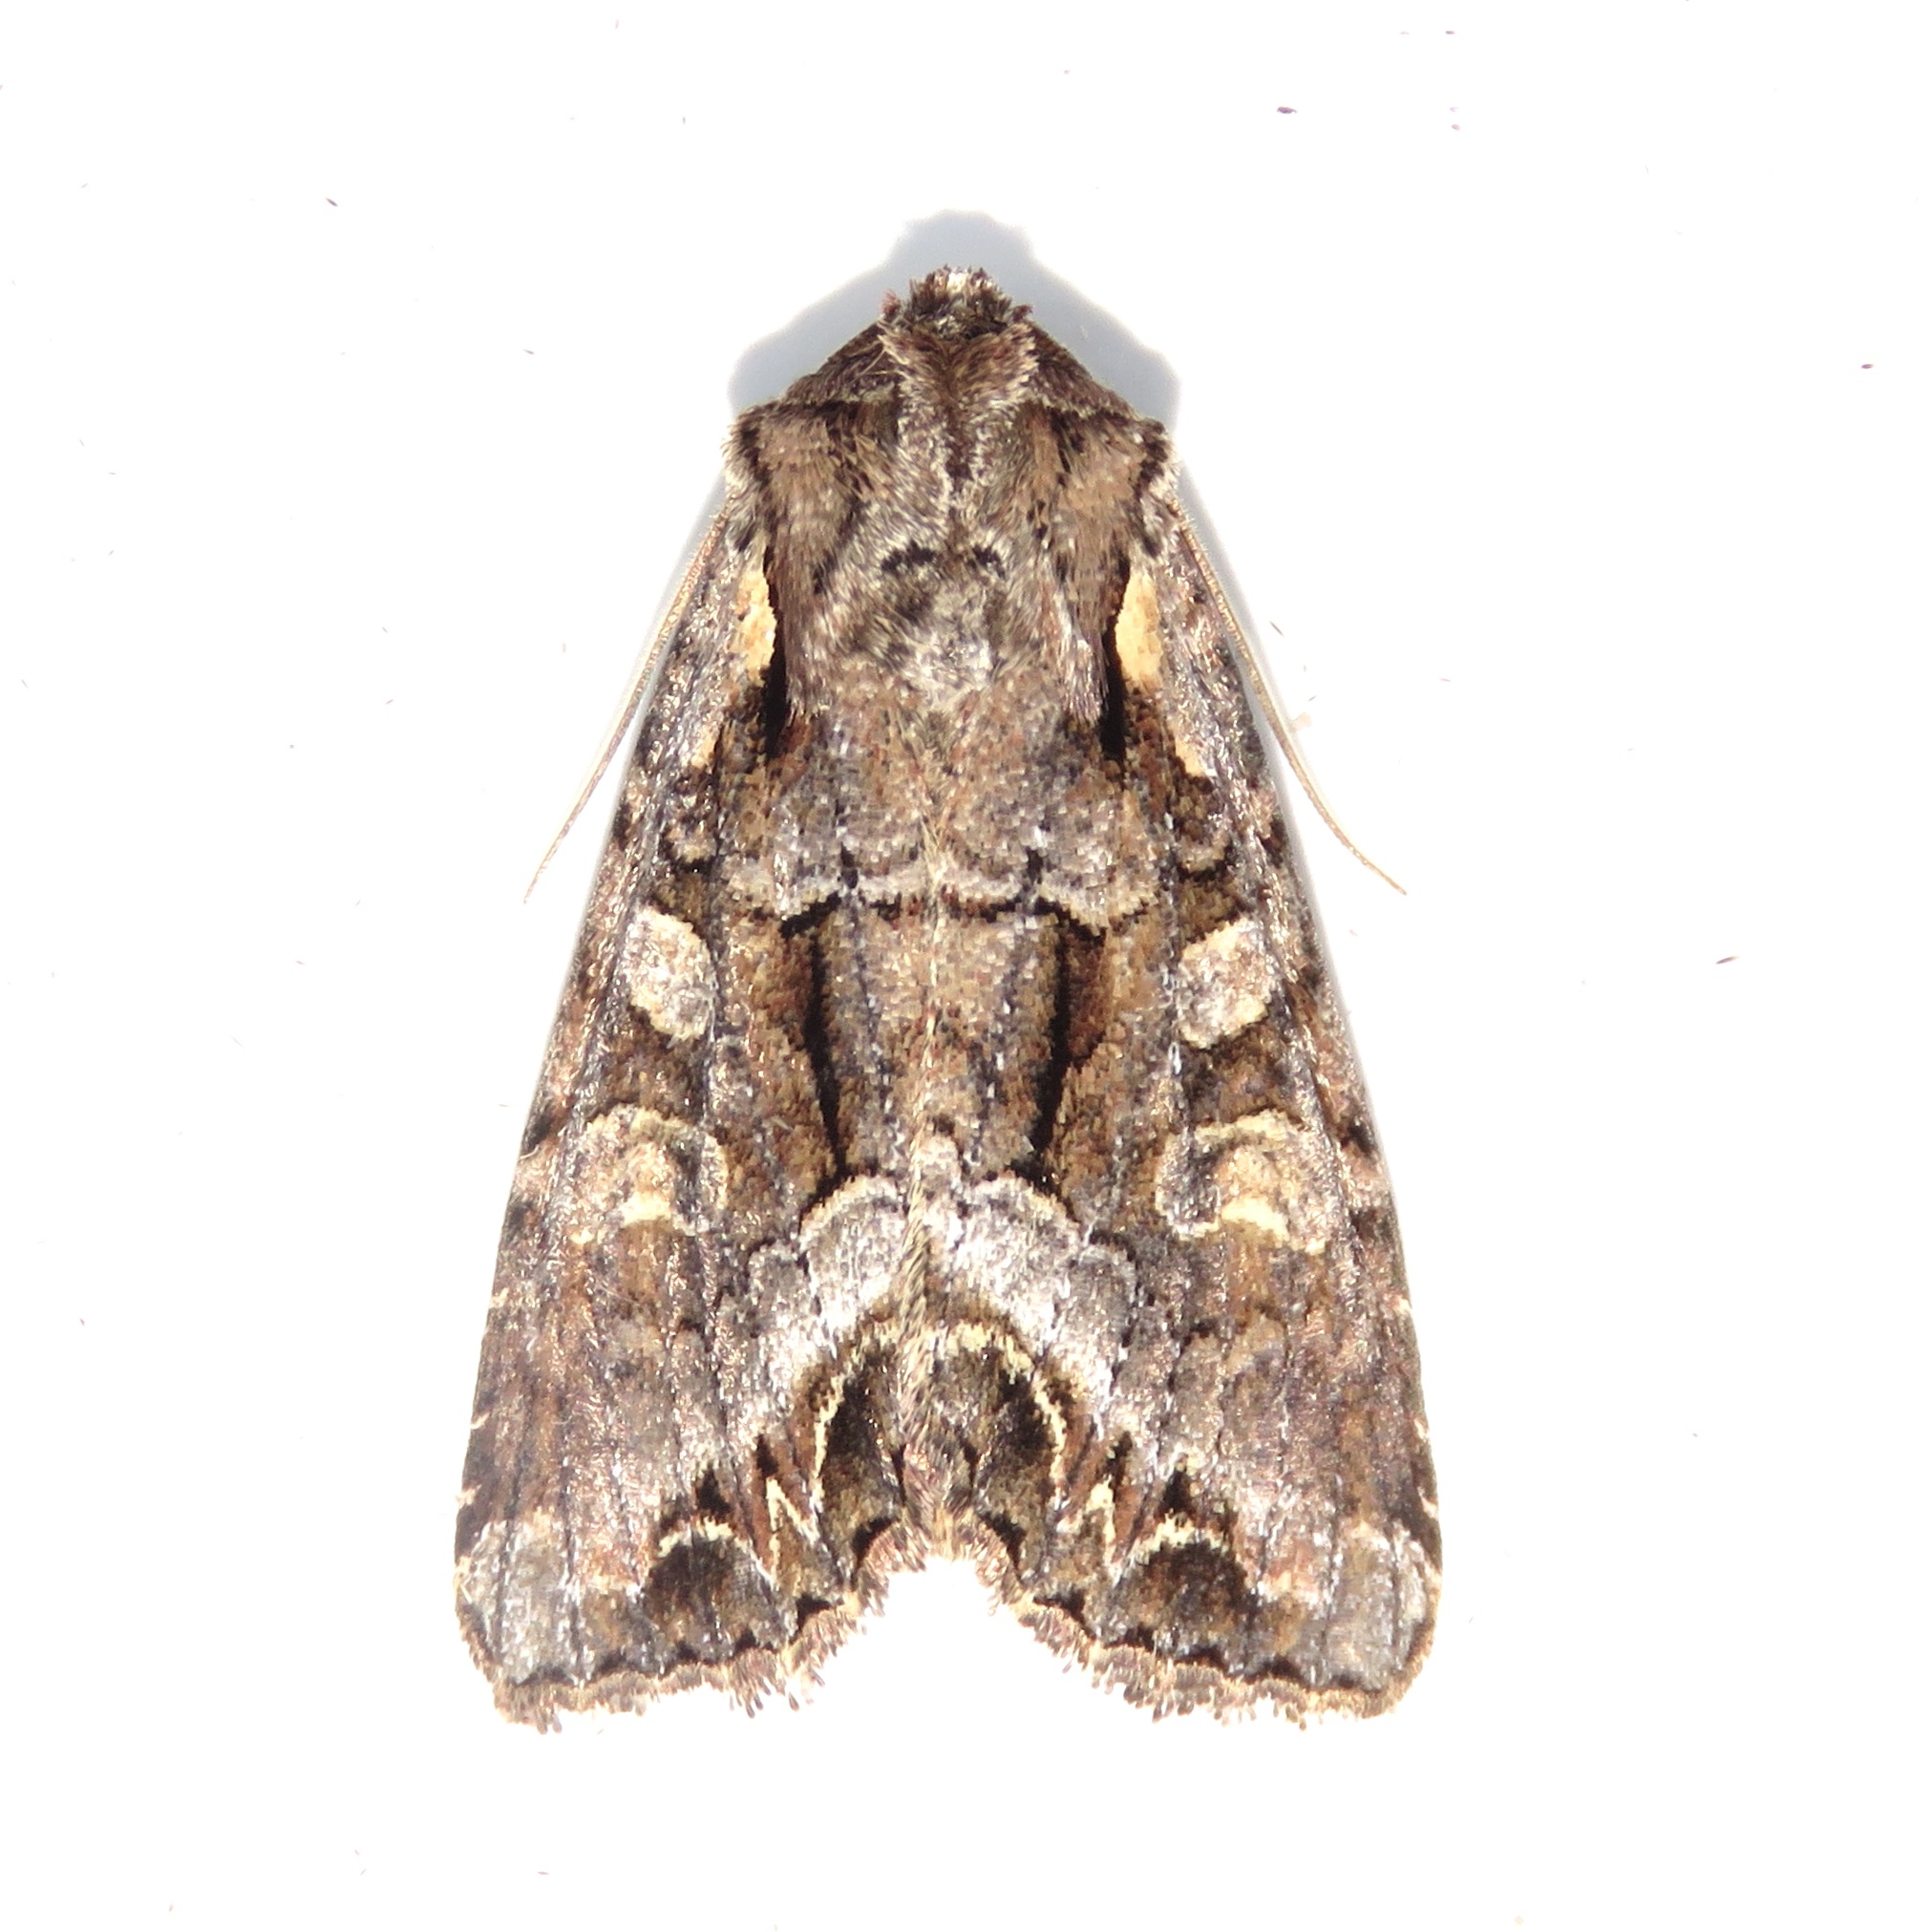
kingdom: Animalia
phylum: Arthropoda
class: Insecta
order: Lepidoptera
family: Noctuidae
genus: Lacanobia
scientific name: Lacanobia grandis
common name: Grand arches moth
